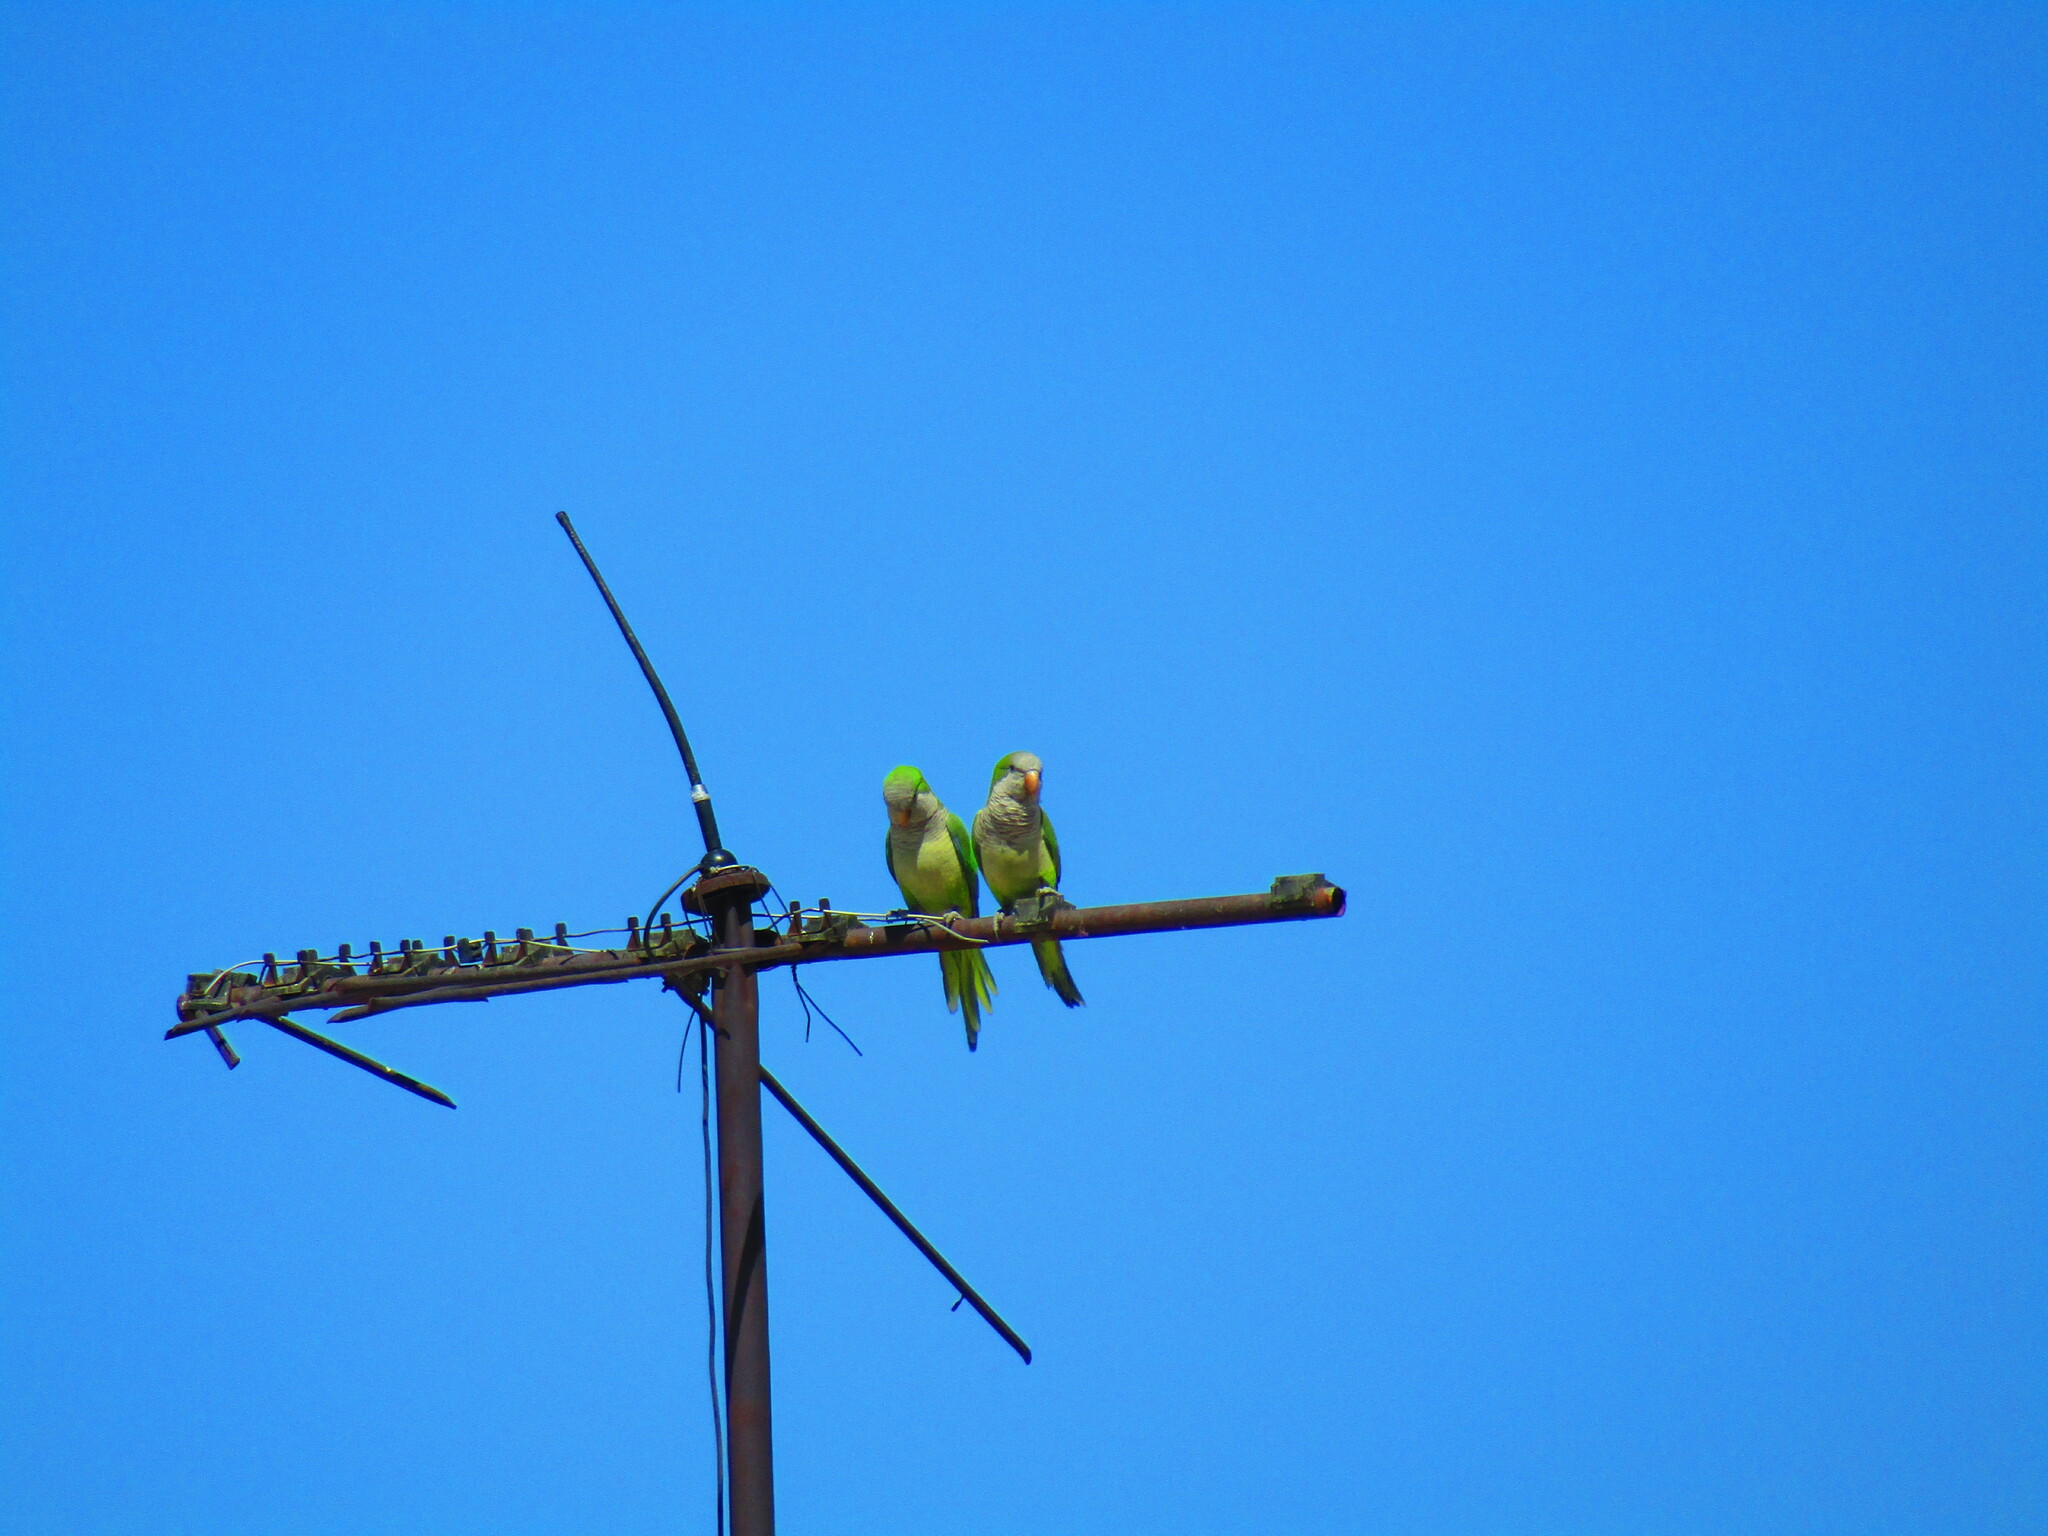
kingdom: Animalia
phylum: Chordata
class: Aves
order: Psittaciformes
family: Psittacidae
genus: Myiopsitta
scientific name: Myiopsitta monachus
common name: Monk parakeet
